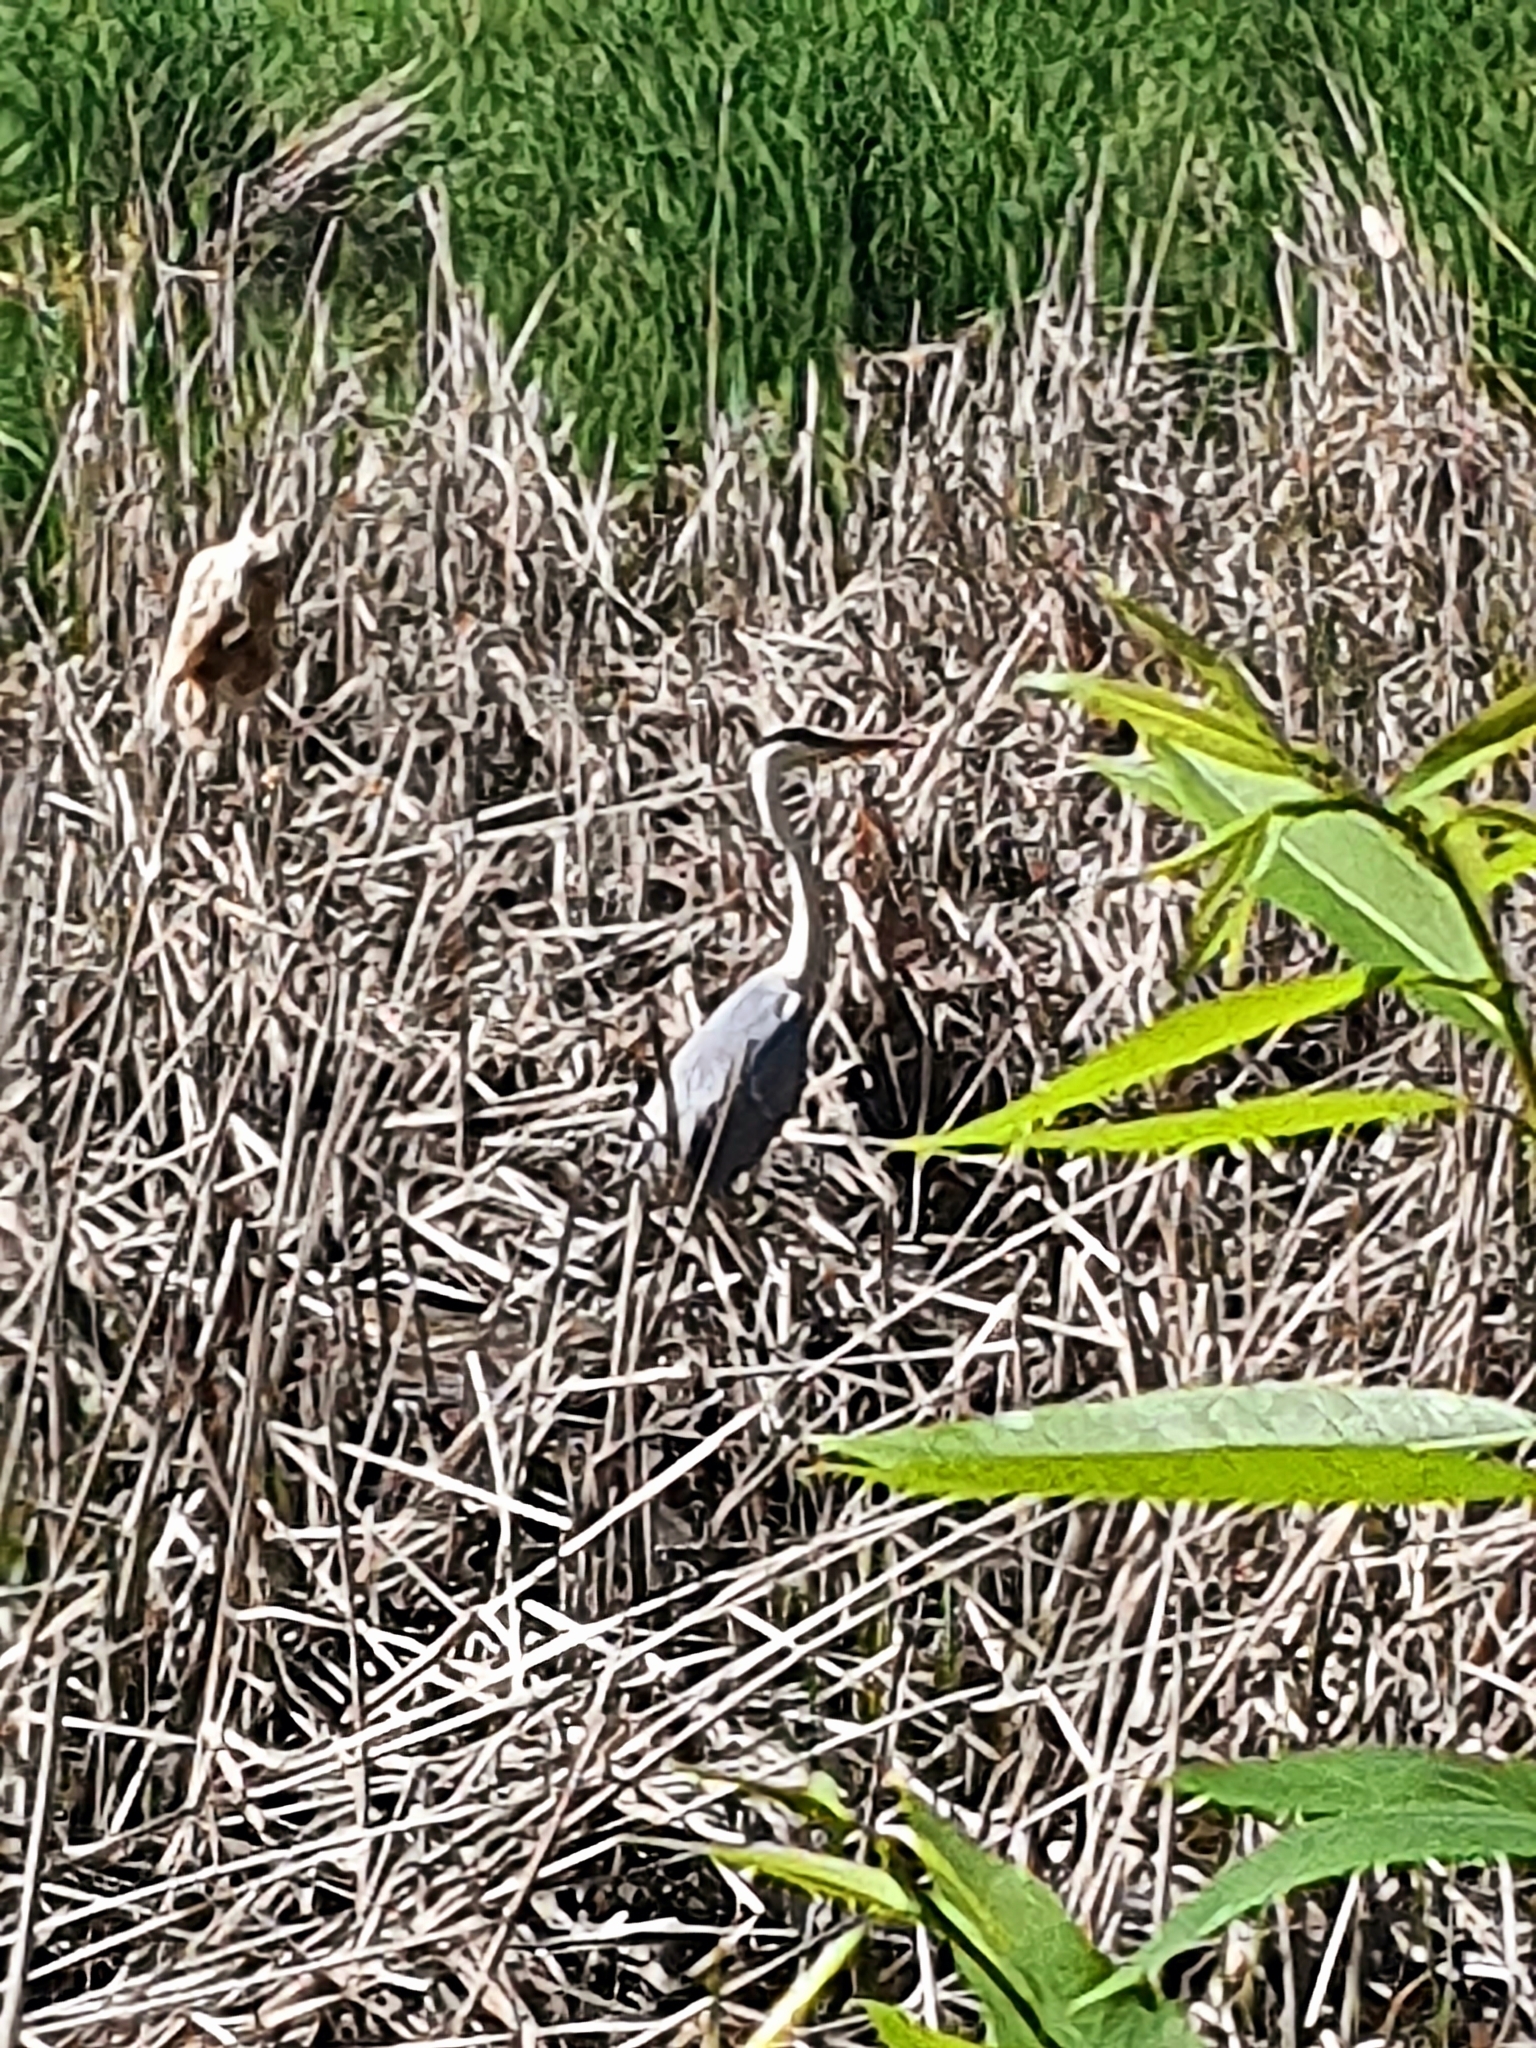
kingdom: Animalia
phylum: Chordata
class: Aves
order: Pelecaniformes
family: Ardeidae
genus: Ardea
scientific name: Ardea cinerea
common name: Grey heron
